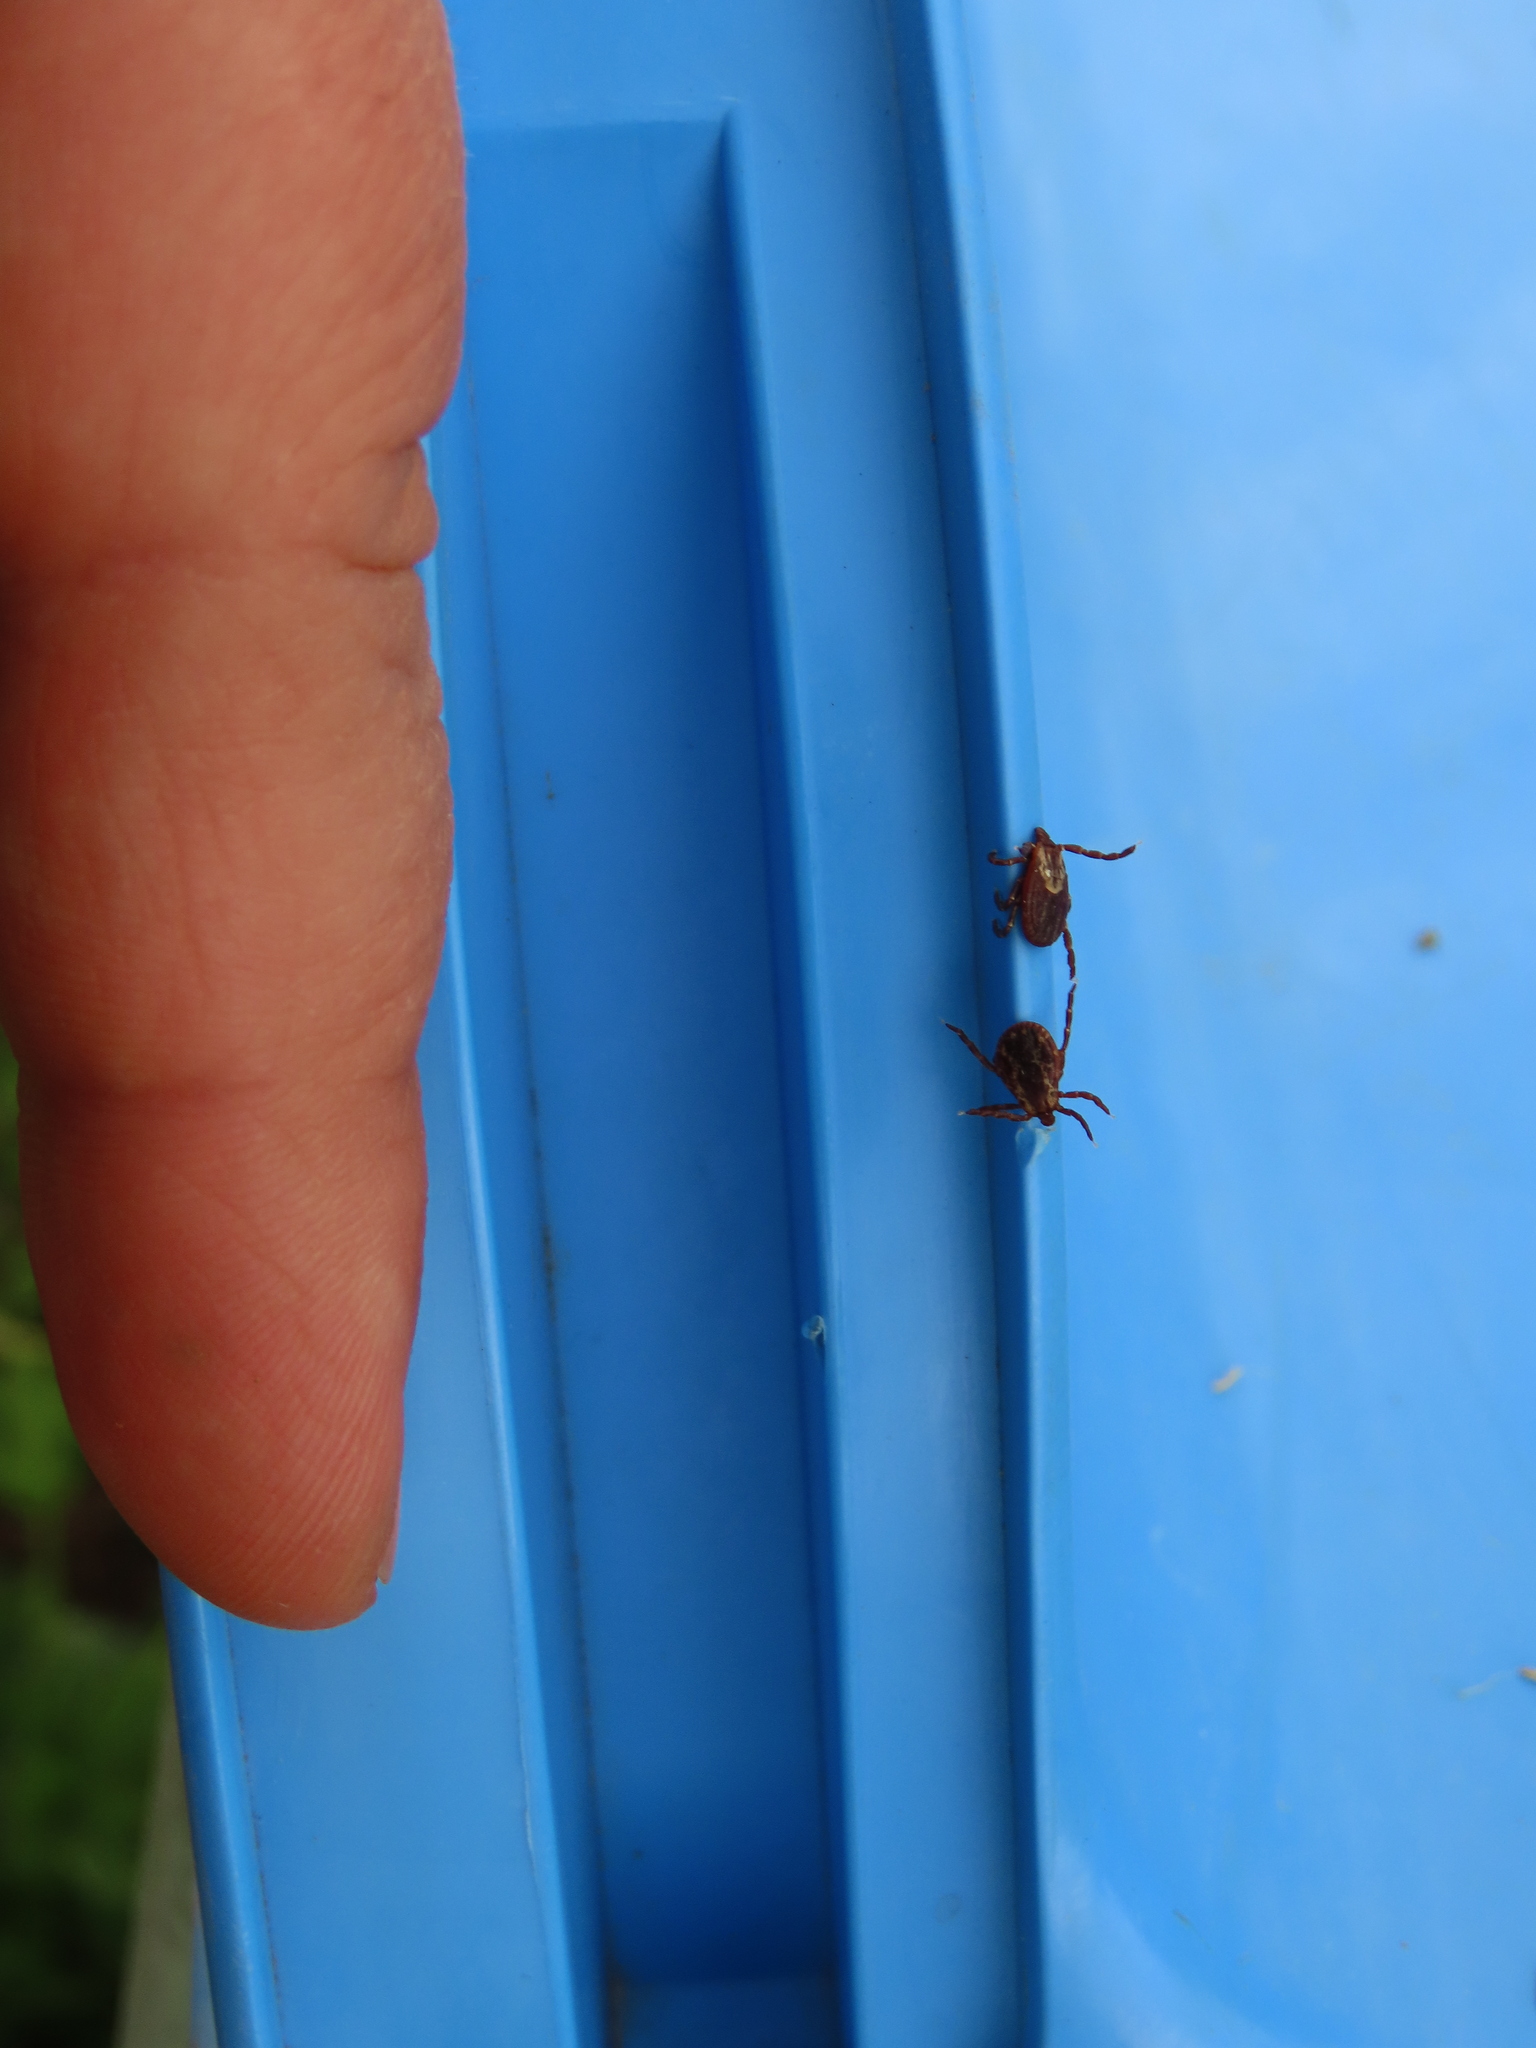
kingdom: Animalia
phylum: Arthropoda
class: Arachnida
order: Ixodida
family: Ixodidae
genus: Dermacentor
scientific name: Dermacentor variabilis
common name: American dog tick
